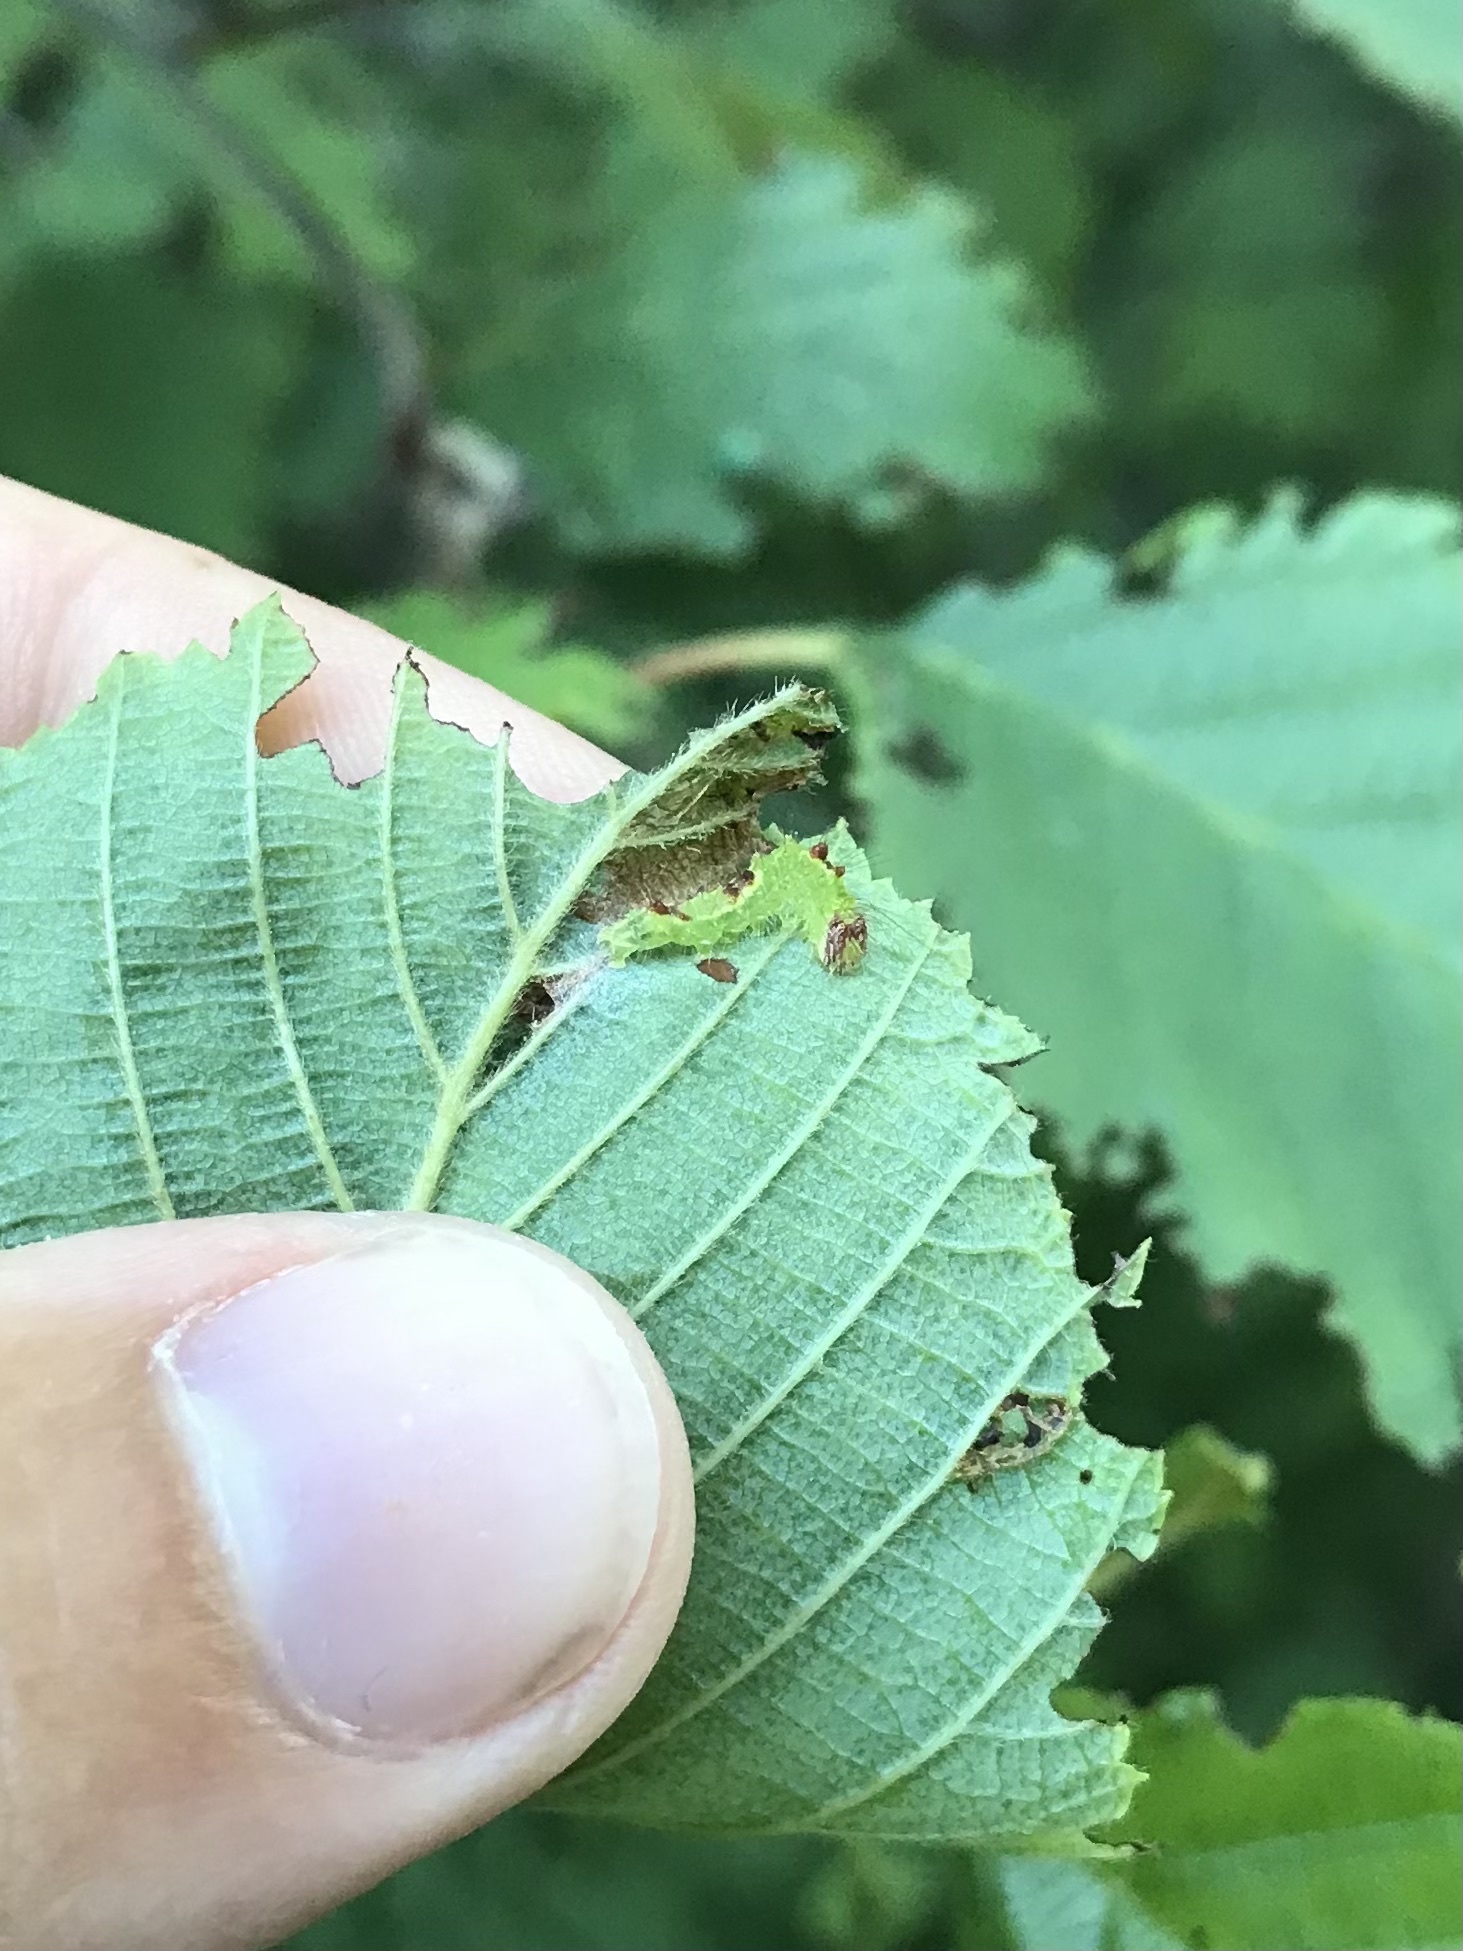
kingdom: Animalia
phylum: Arthropoda
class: Insecta
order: Lepidoptera
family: Noctuidae
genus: Acronicta
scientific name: Acronicta grisea
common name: Gray dagger
